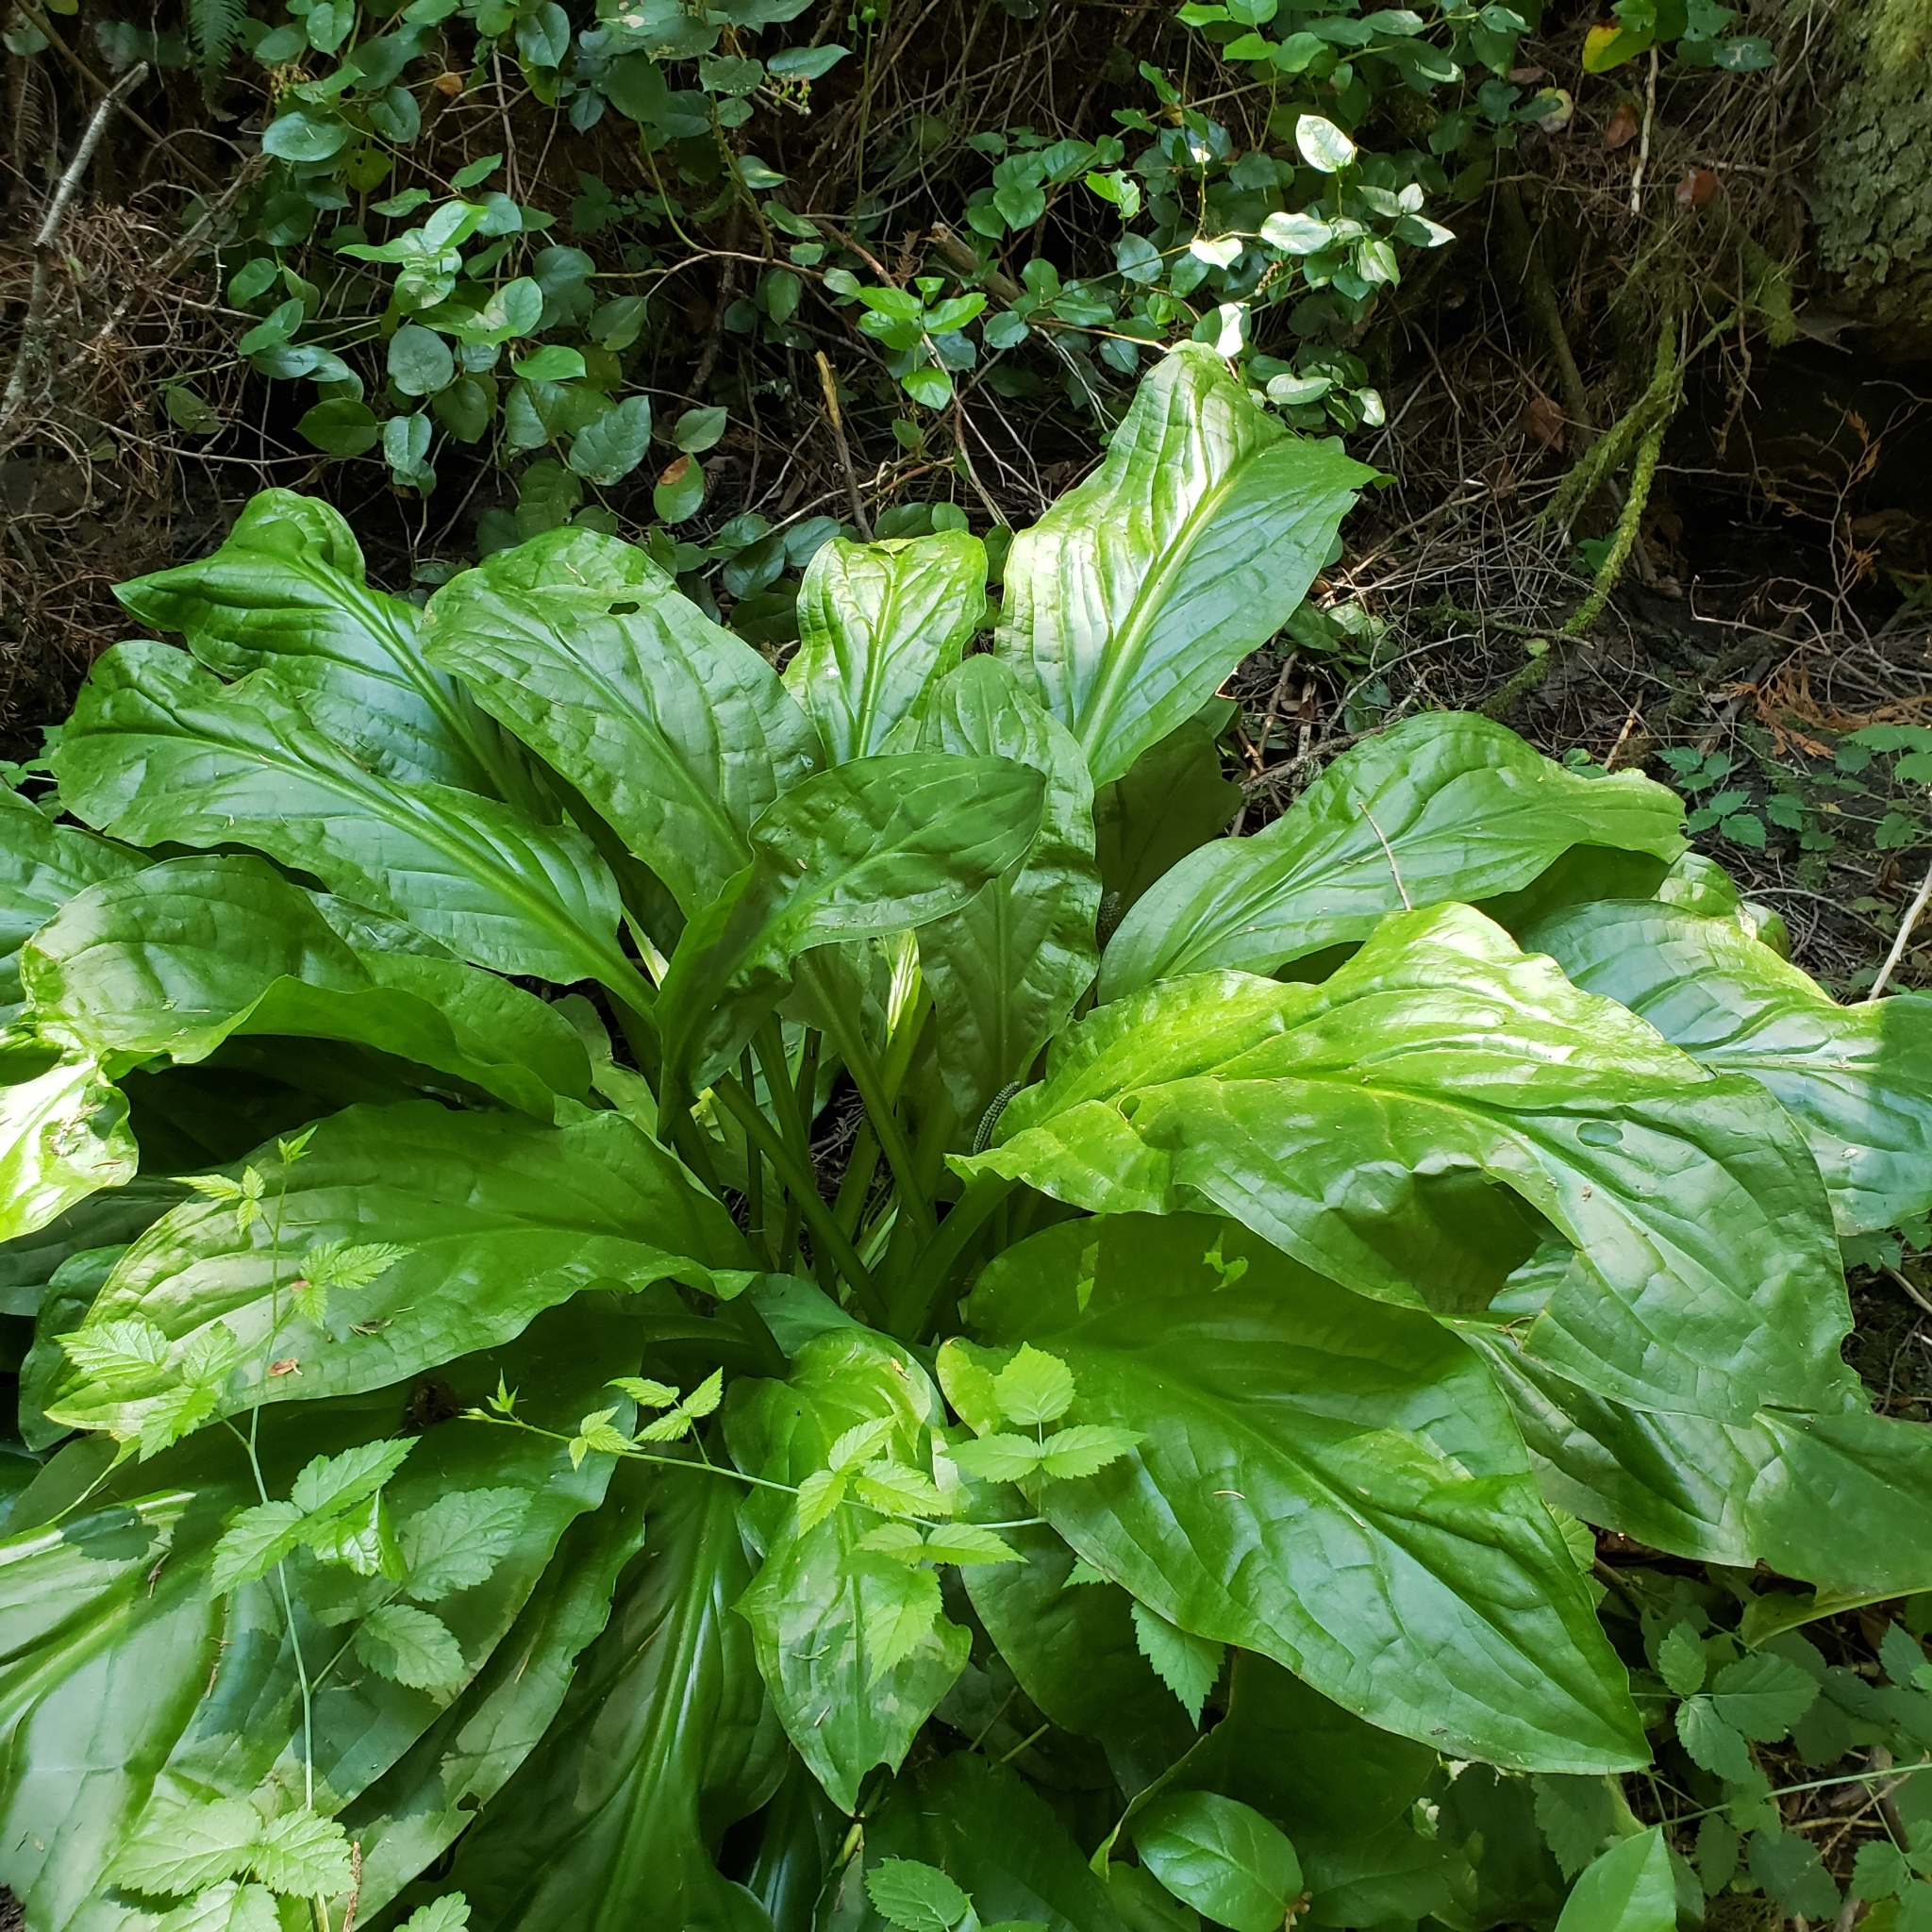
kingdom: Plantae
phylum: Tracheophyta
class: Liliopsida
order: Alismatales
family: Araceae
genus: Lysichiton
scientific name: Lysichiton americanus
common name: American skunk cabbage
